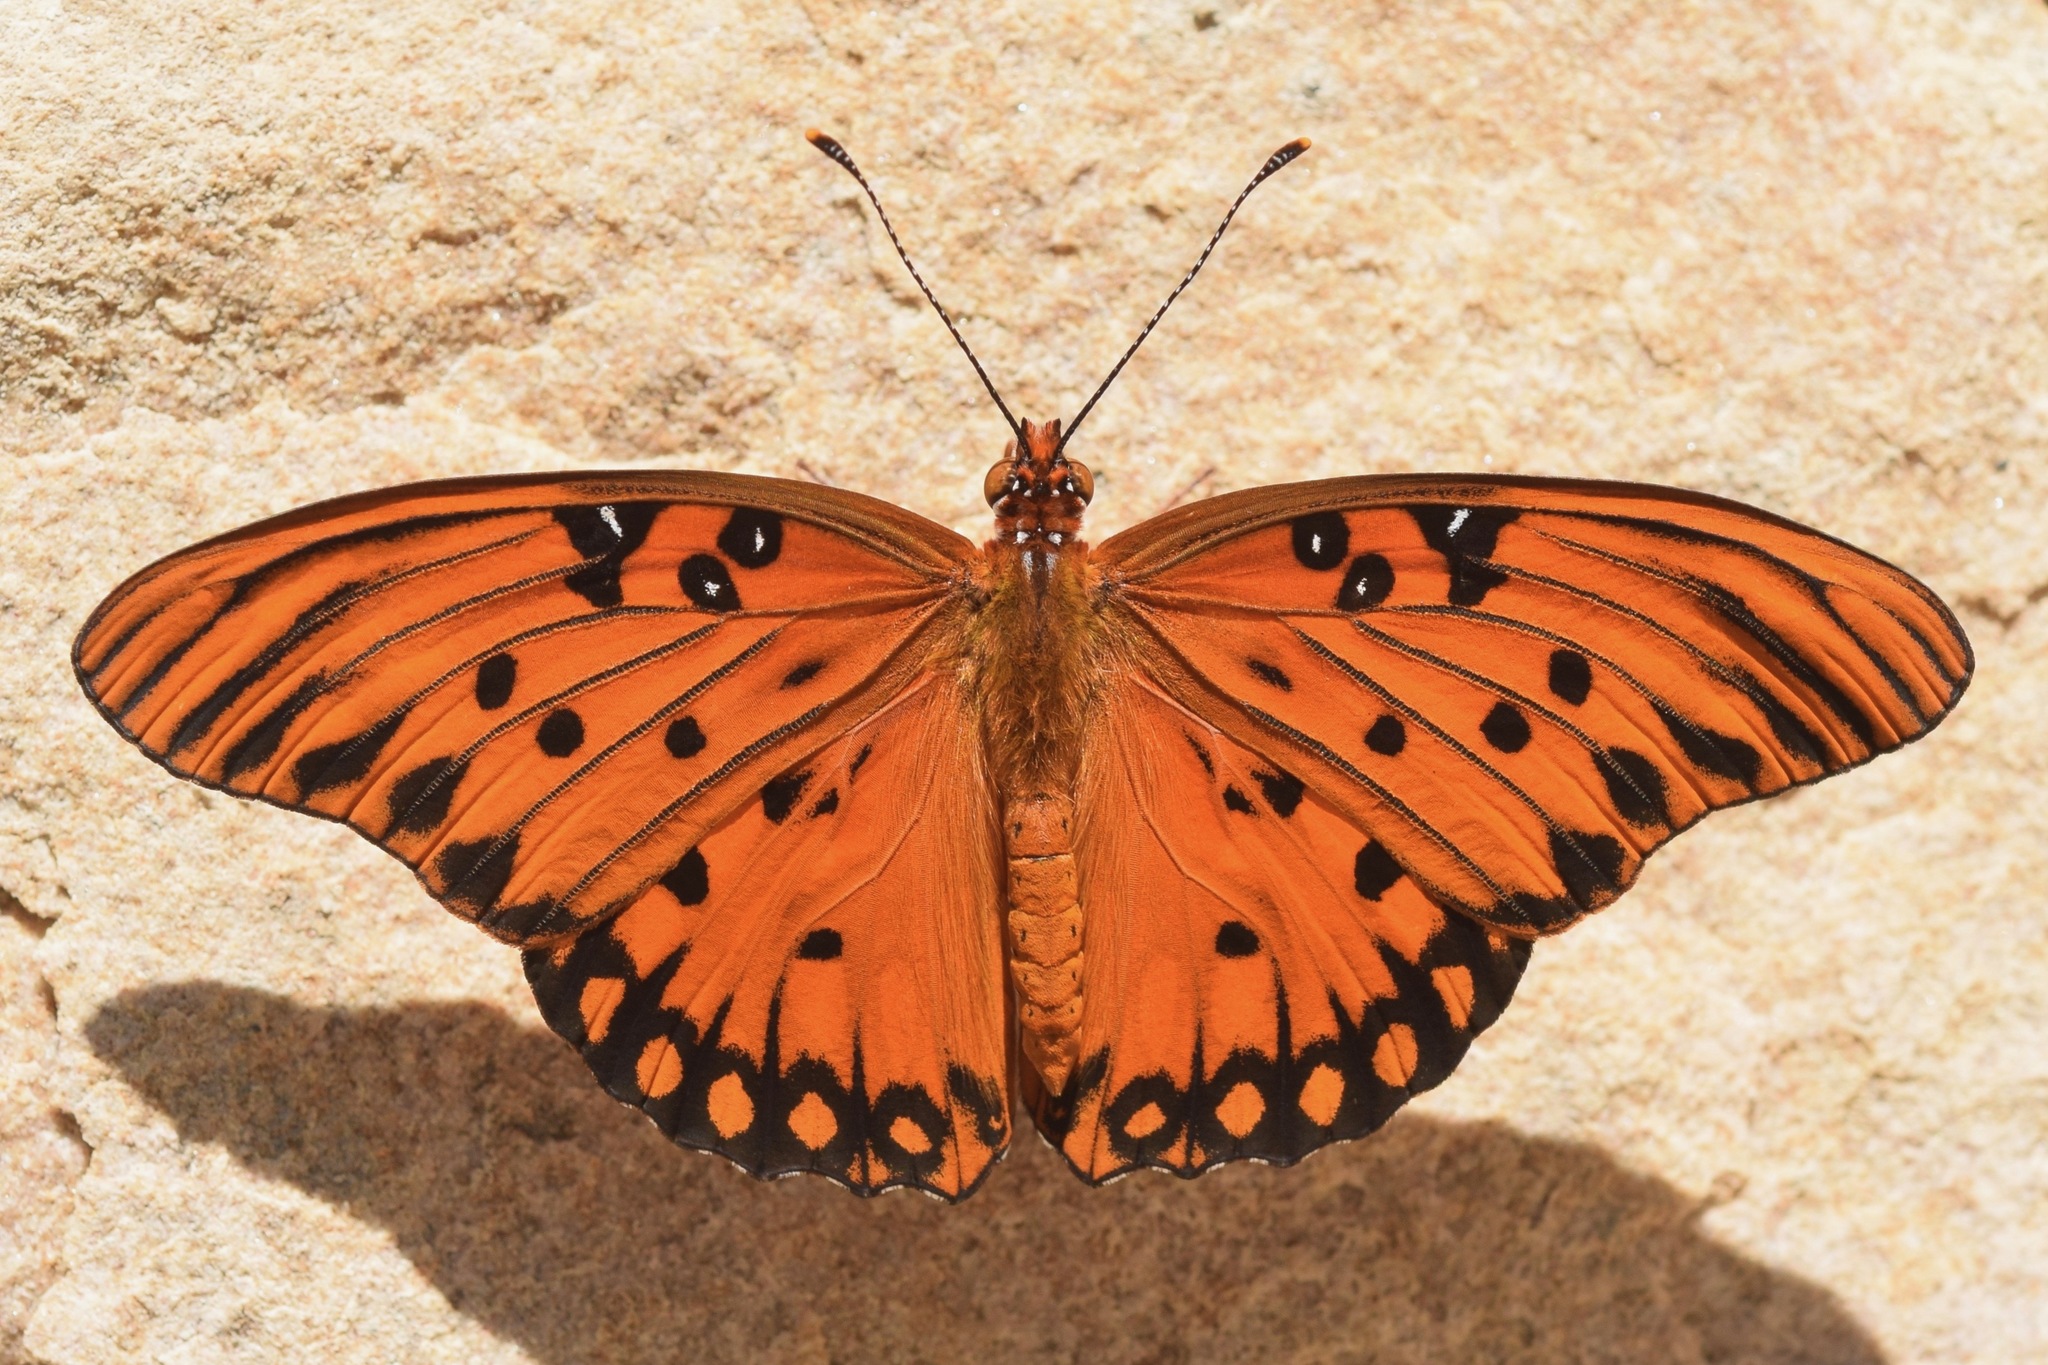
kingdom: Animalia
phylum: Arthropoda
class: Insecta
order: Lepidoptera
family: Nymphalidae
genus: Dione
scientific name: Dione vanillae
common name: Gulf fritillary
